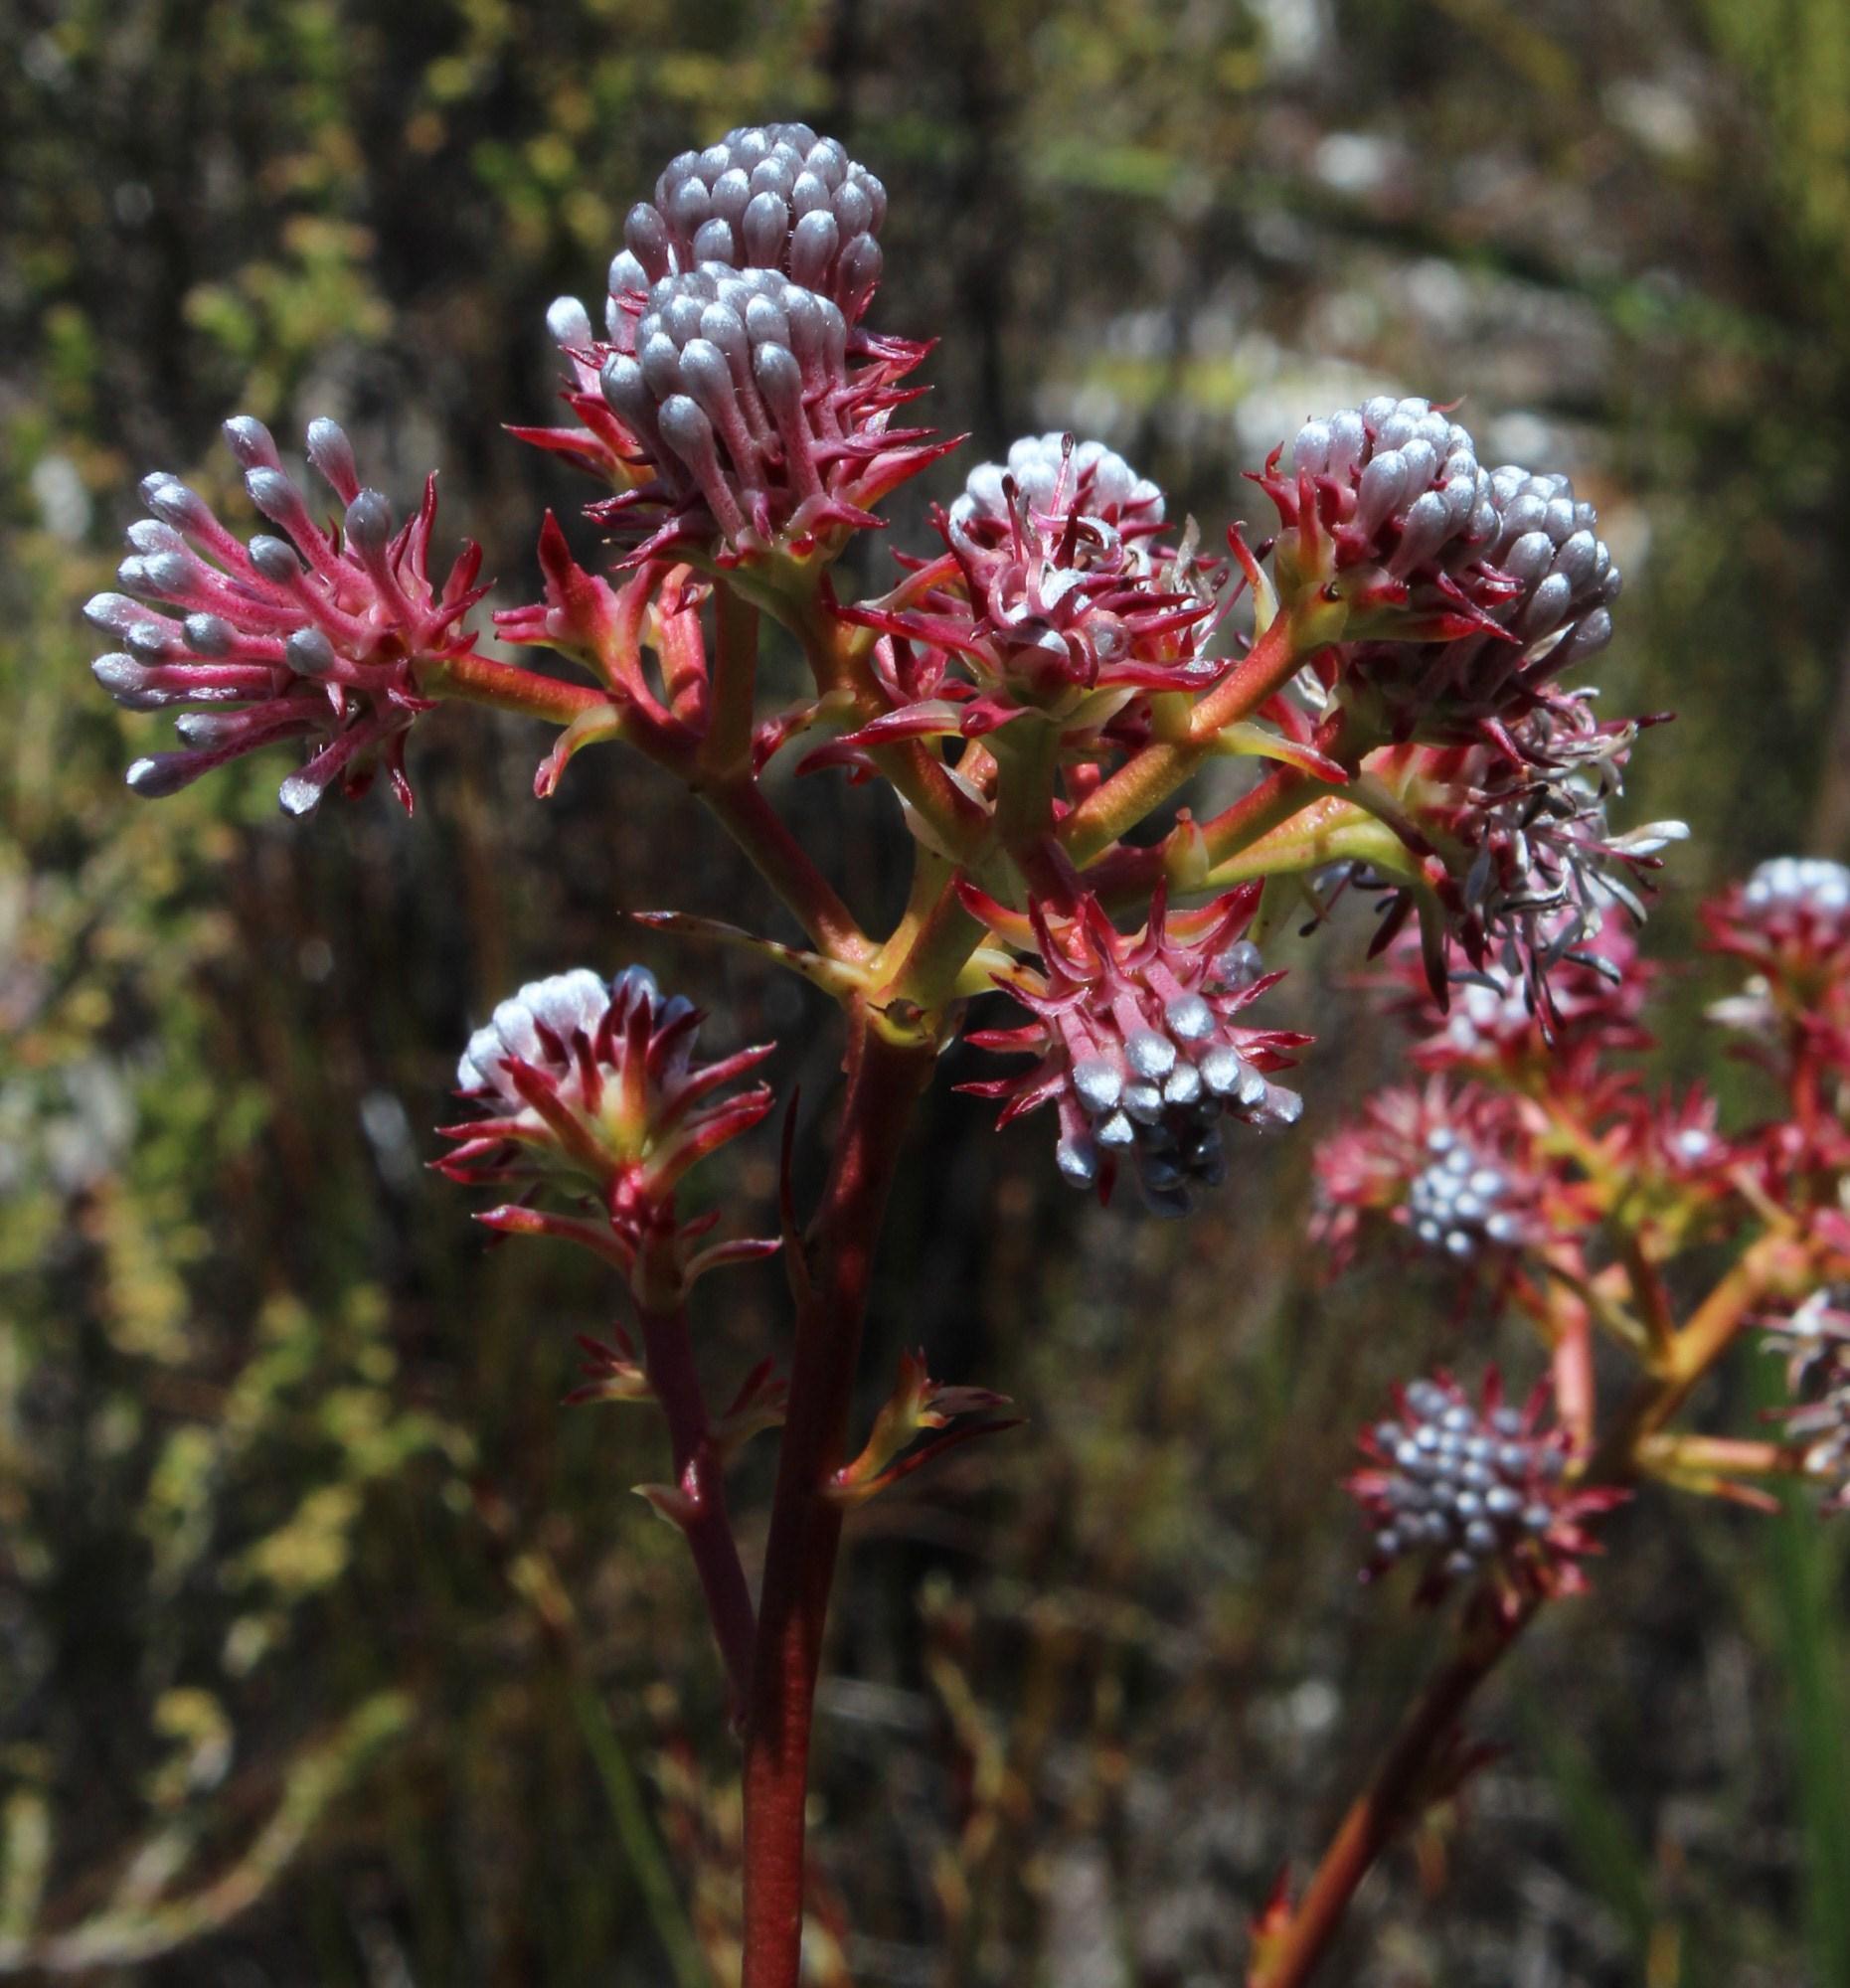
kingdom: Plantae
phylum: Tracheophyta
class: Magnoliopsida
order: Proteales
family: Proteaceae
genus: Serruria
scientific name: Serruria elongata
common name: Long-stalk spiderhead
